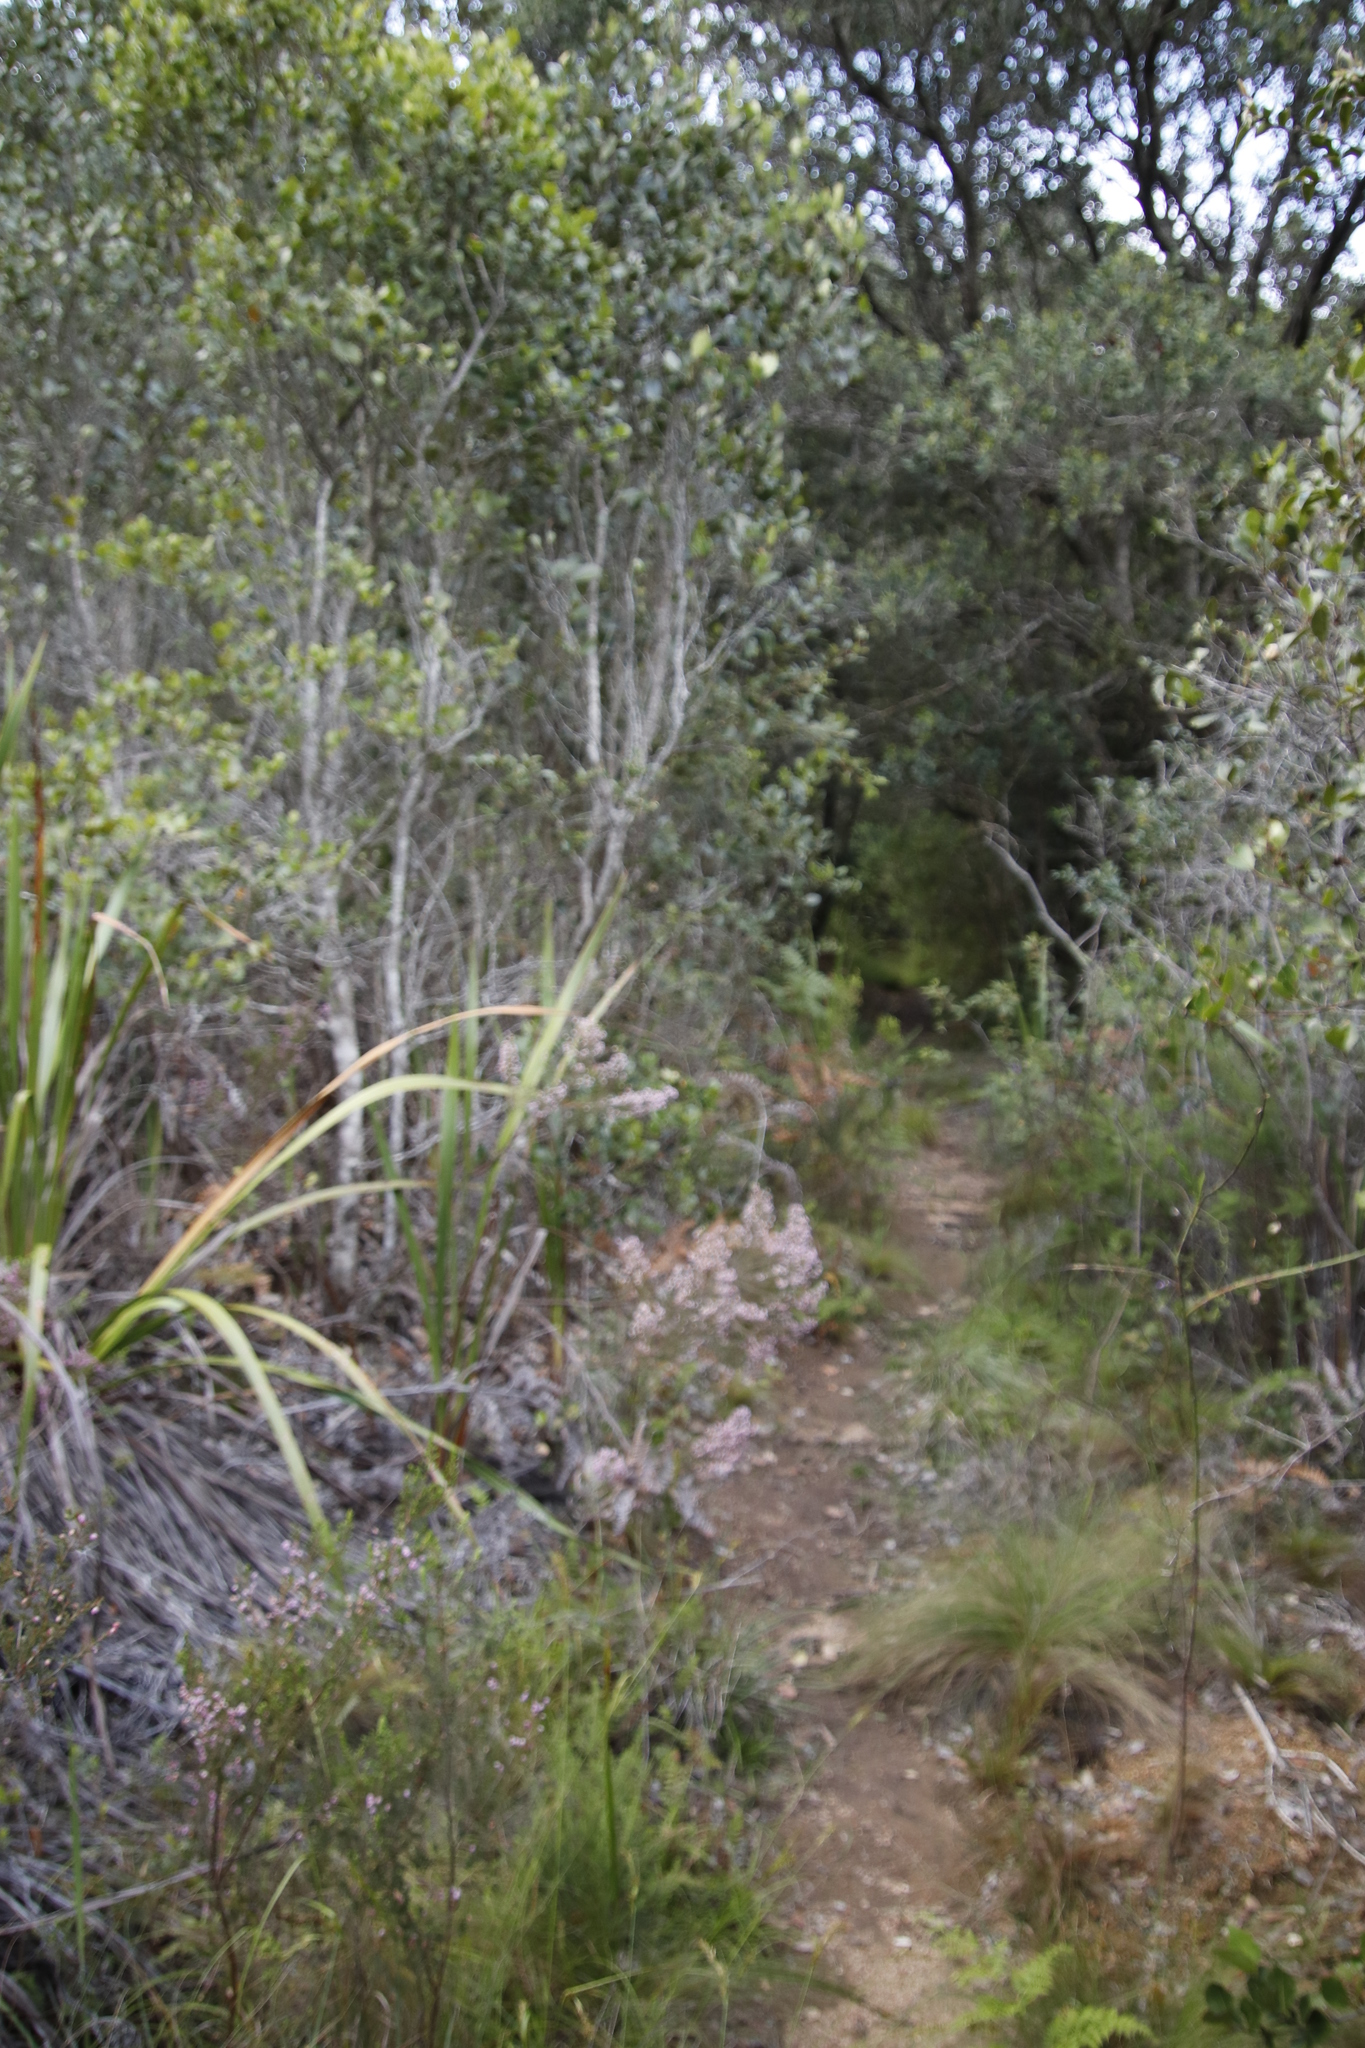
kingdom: Plantae
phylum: Tracheophyta
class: Magnoliopsida
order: Ericales
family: Ericaceae
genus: Erica
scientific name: Erica hirtiflora
